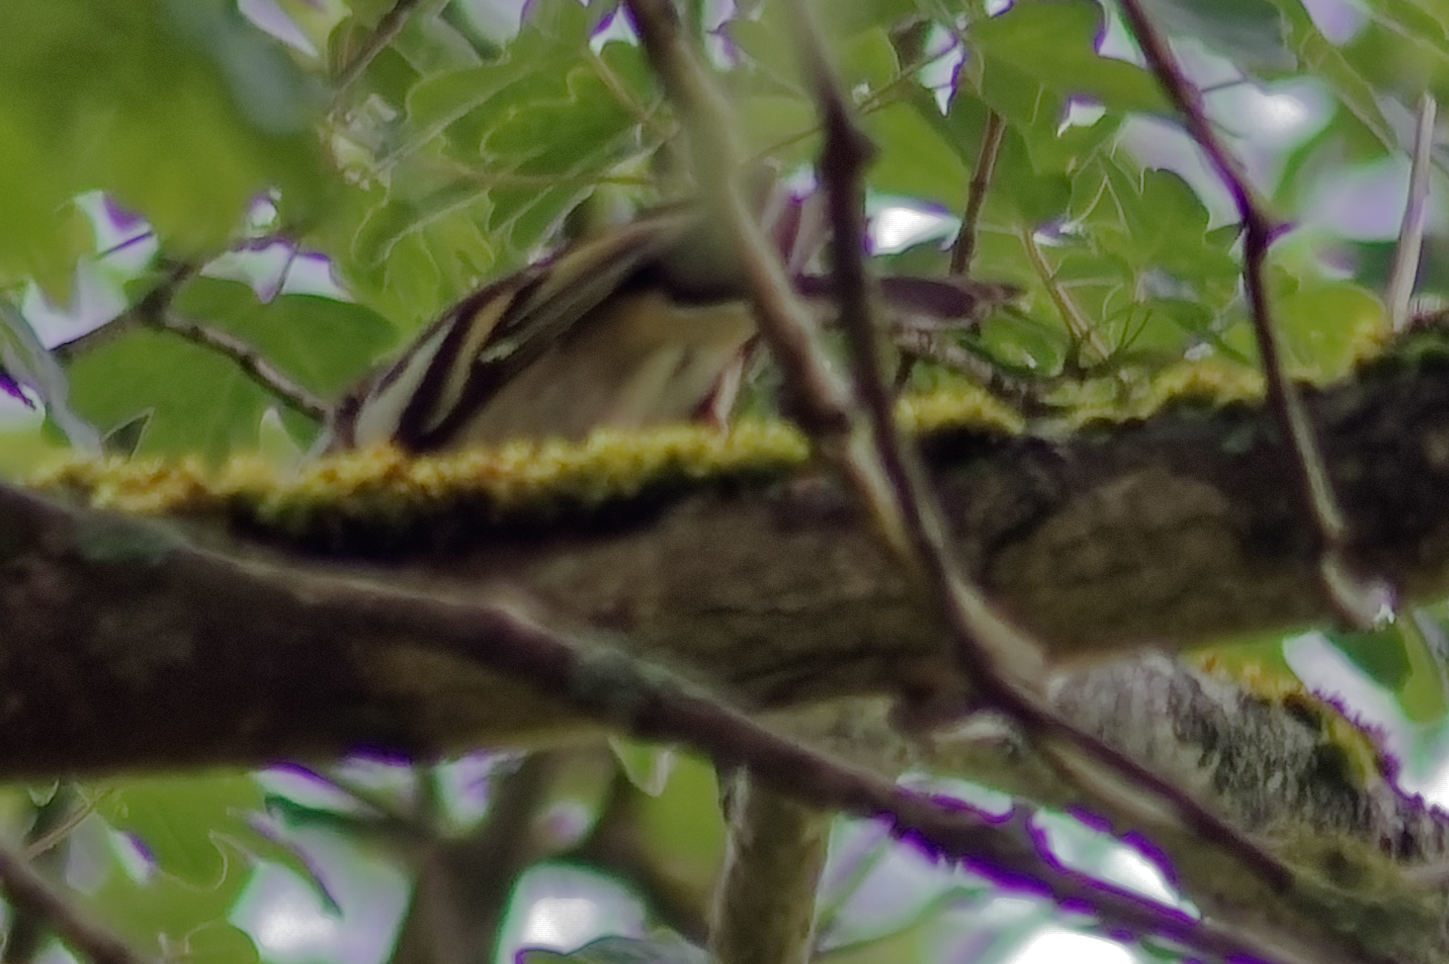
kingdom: Animalia
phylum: Chordata
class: Aves
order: Passeriformes
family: Fringillidae
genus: Fringilla
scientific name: Fringilla coelebs
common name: Common chaffinch
